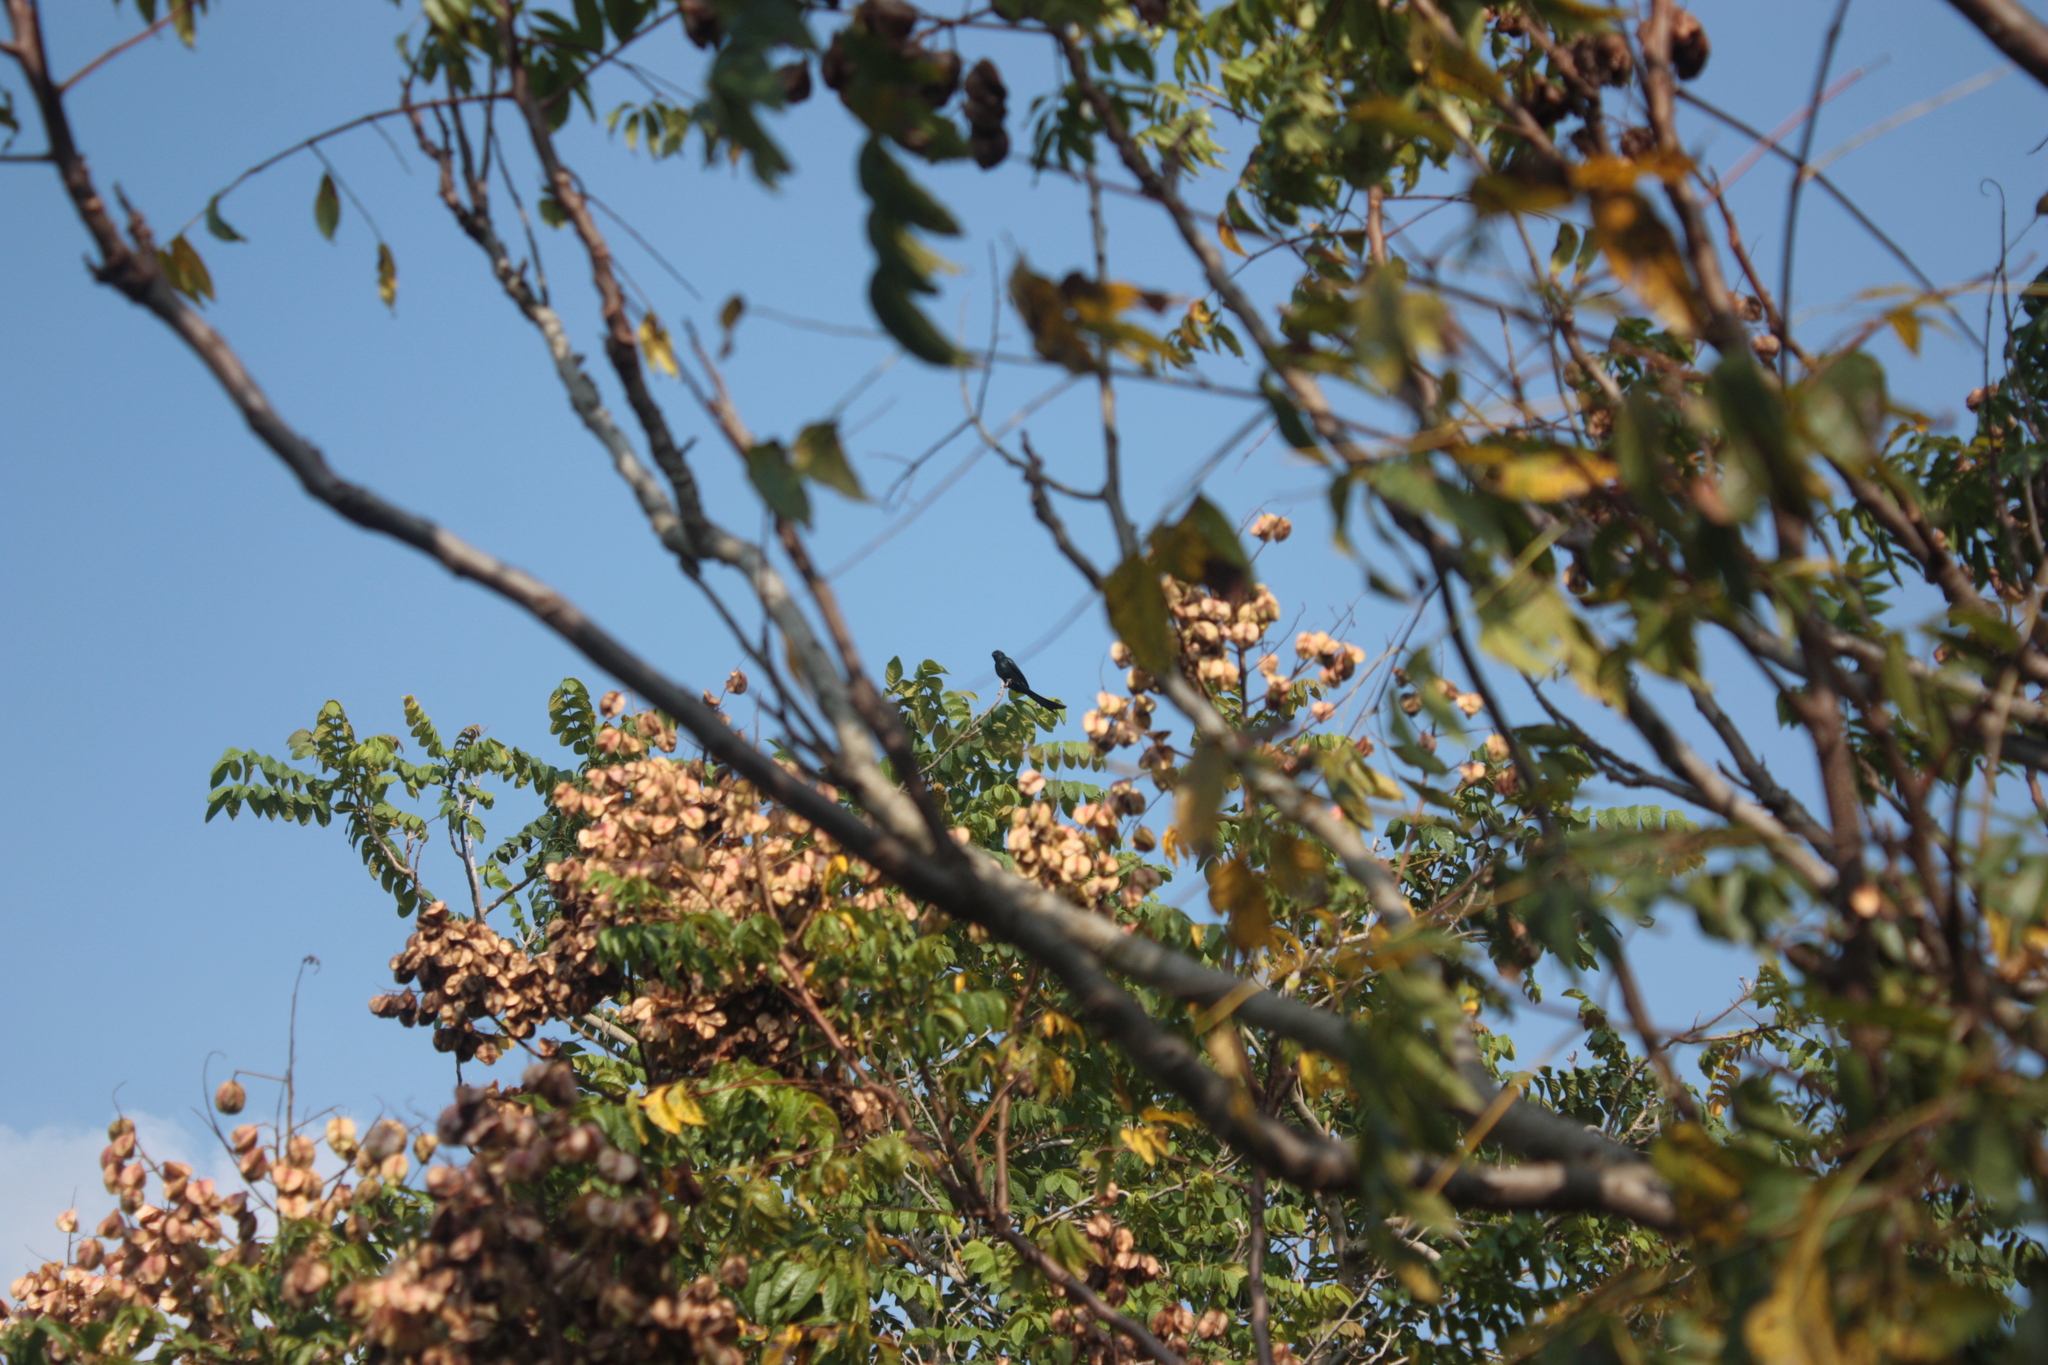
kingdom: Animalia
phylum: Chordata
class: Aves
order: Passeriformes
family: Dicruridae
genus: Dicrurus
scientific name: Dicrurus macrocercus
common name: Black drongo
